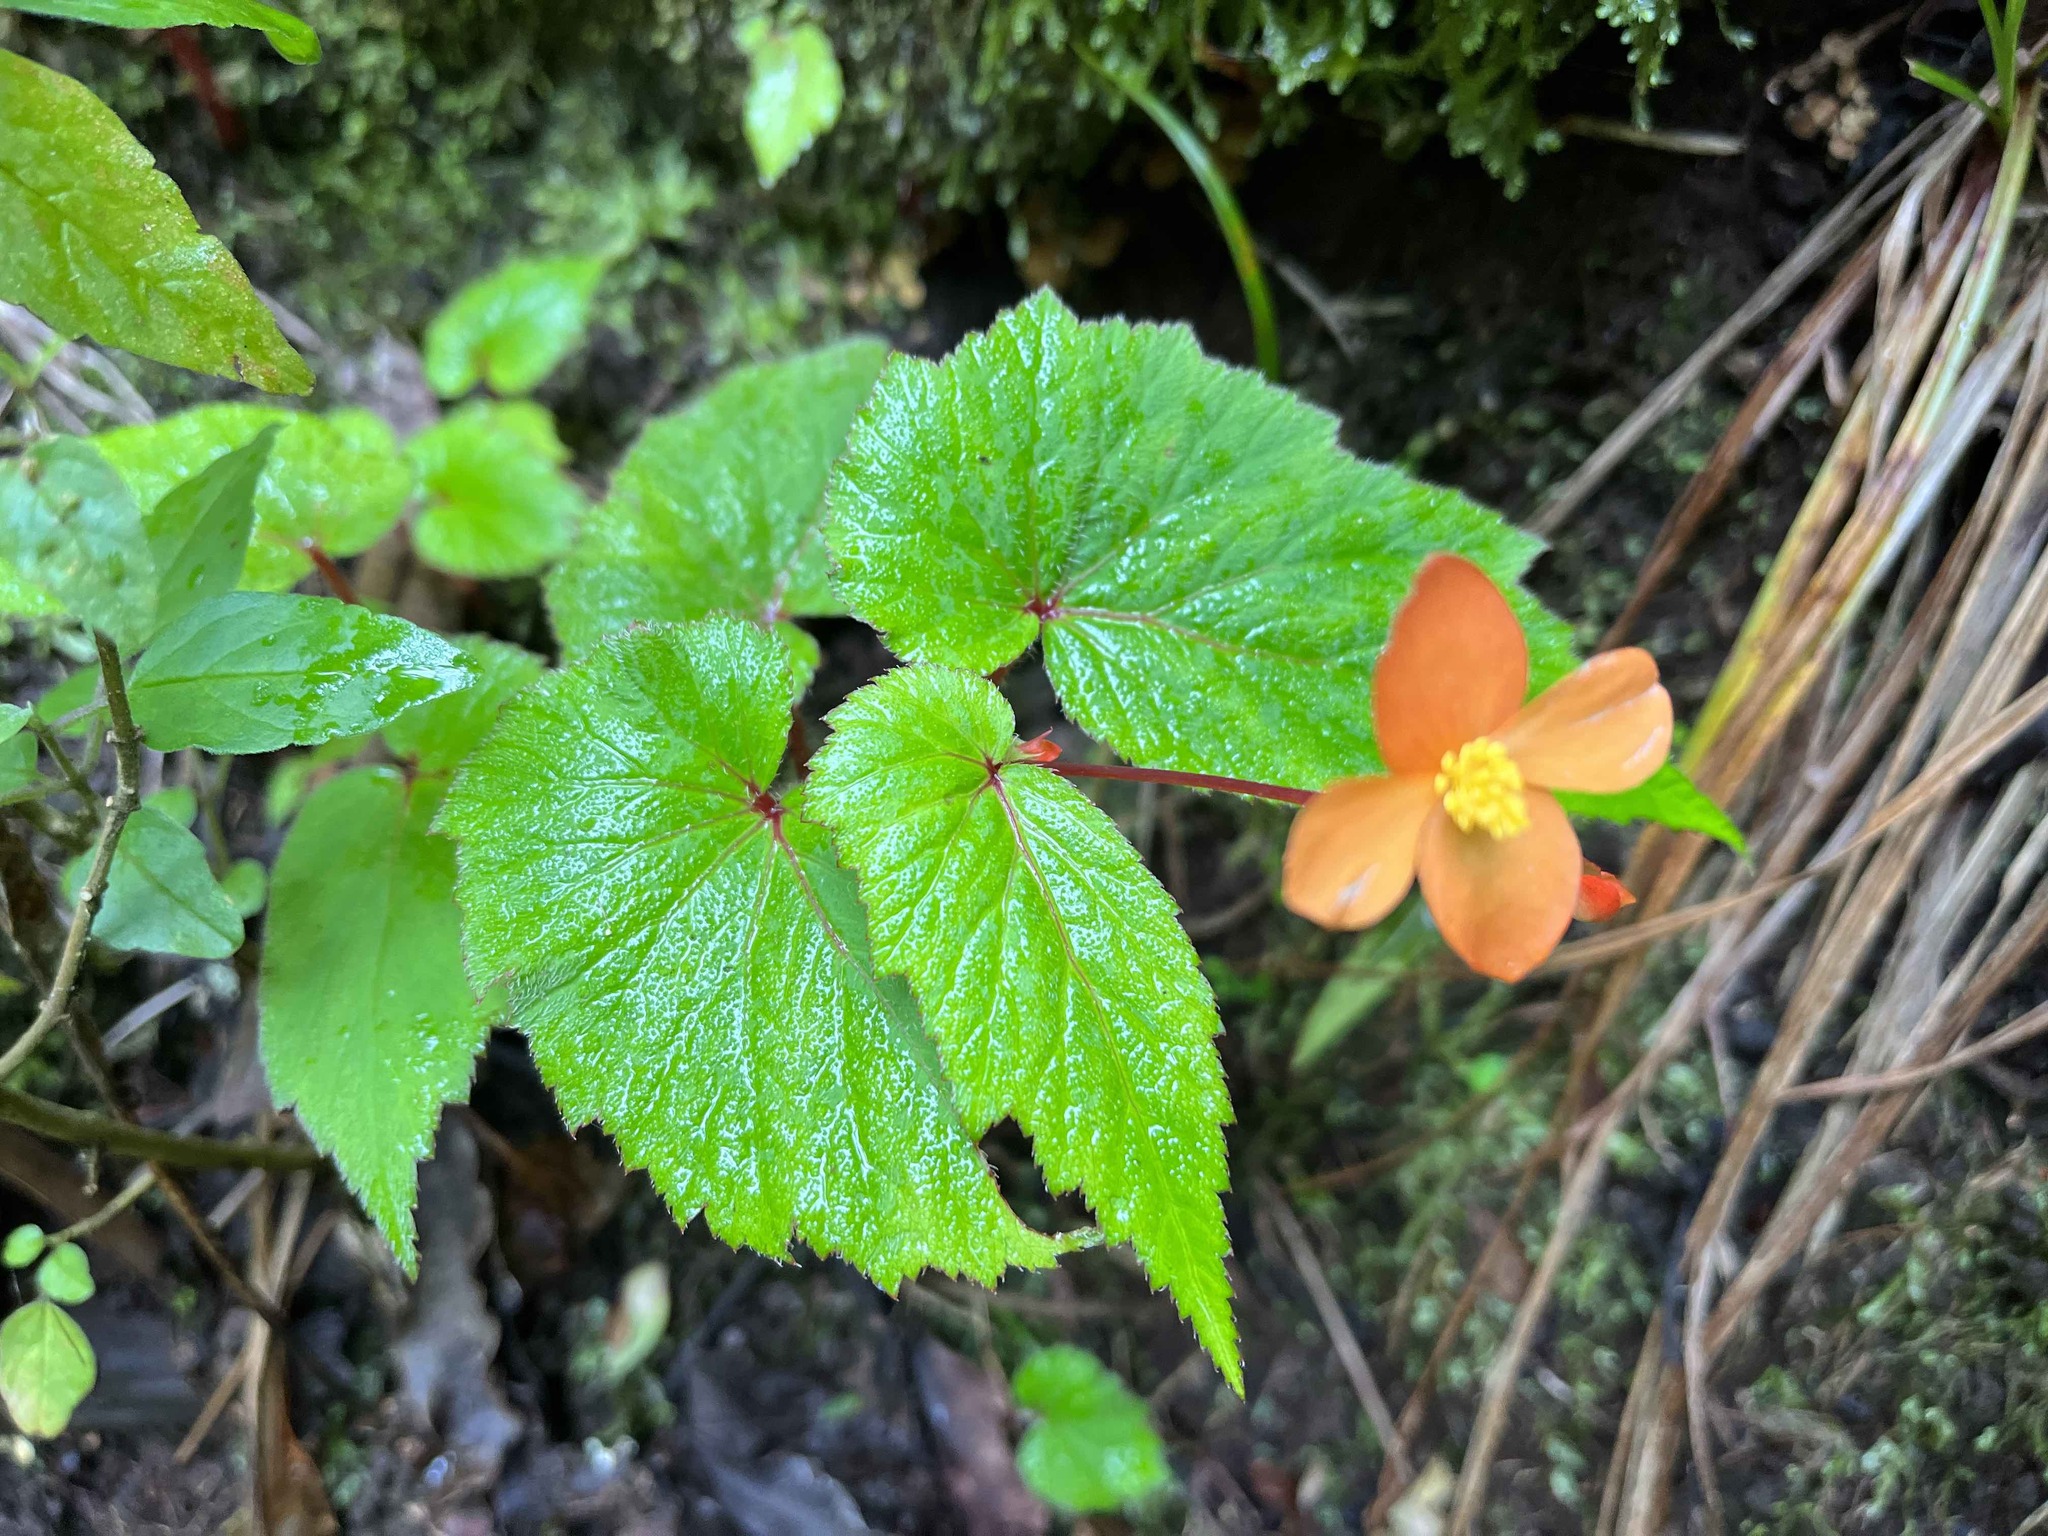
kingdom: Plantae
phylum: Tracheophyta
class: Magnoliopsida
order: Cucurbitales
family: Begoniaceae
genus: Begonia
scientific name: Begonia sutherlandii
